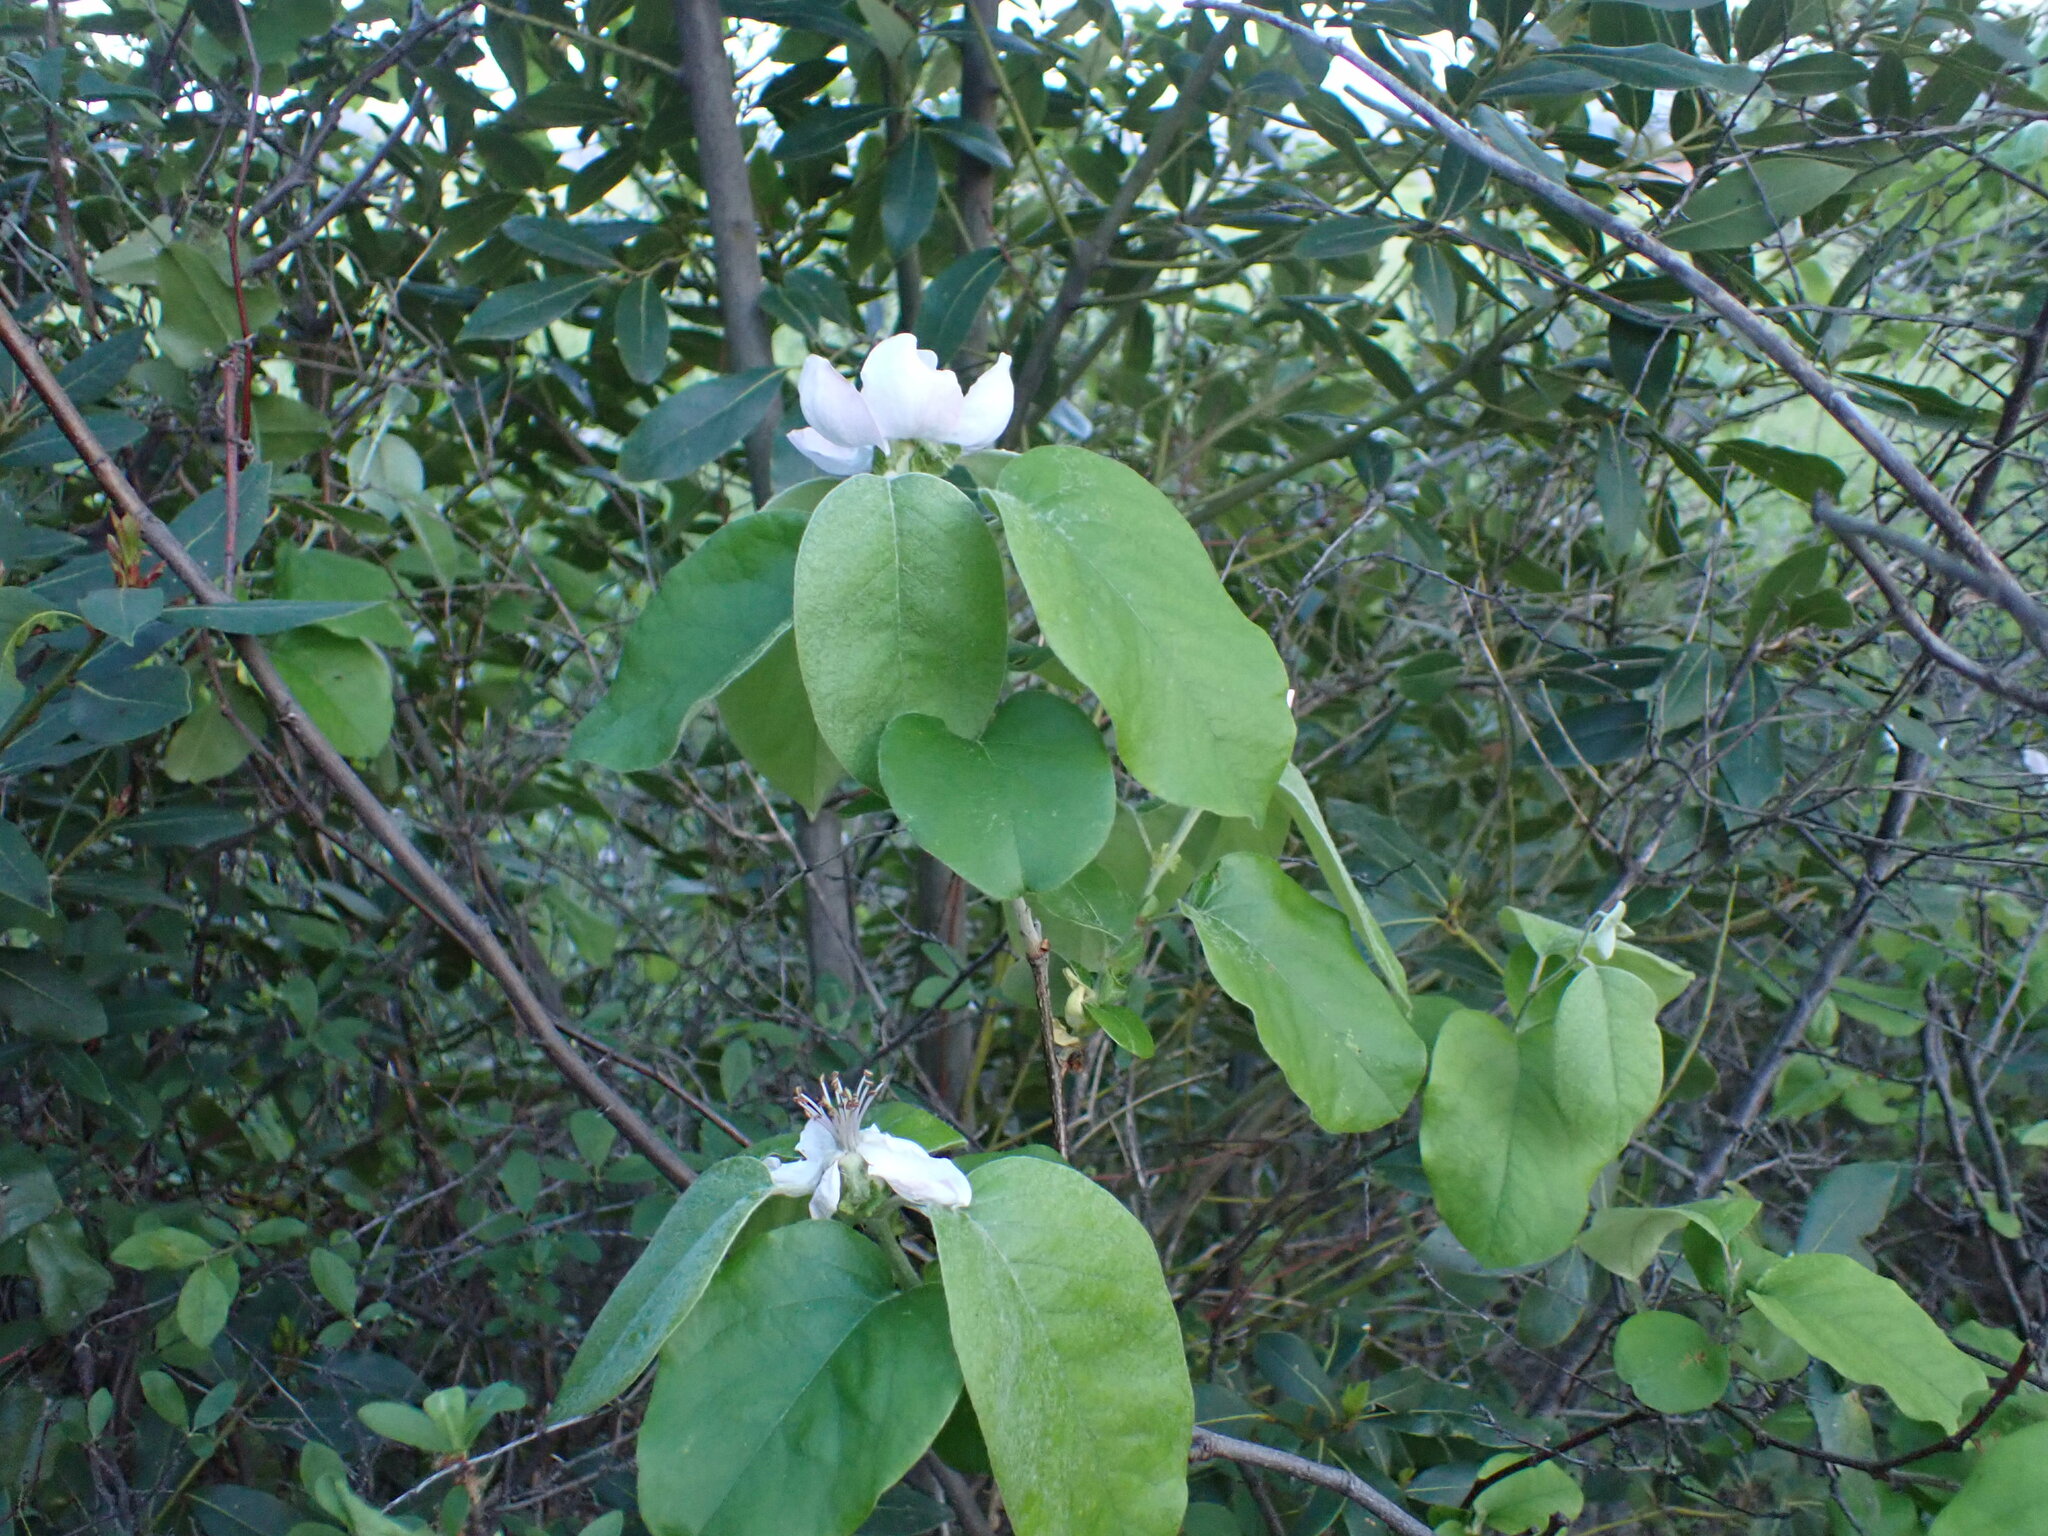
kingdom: Plantae
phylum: Tracheophyta
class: Magnoliopsida
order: Rosales
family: Rosaceae
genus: Cydonia
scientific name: Cydonia oblonga
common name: Quince
